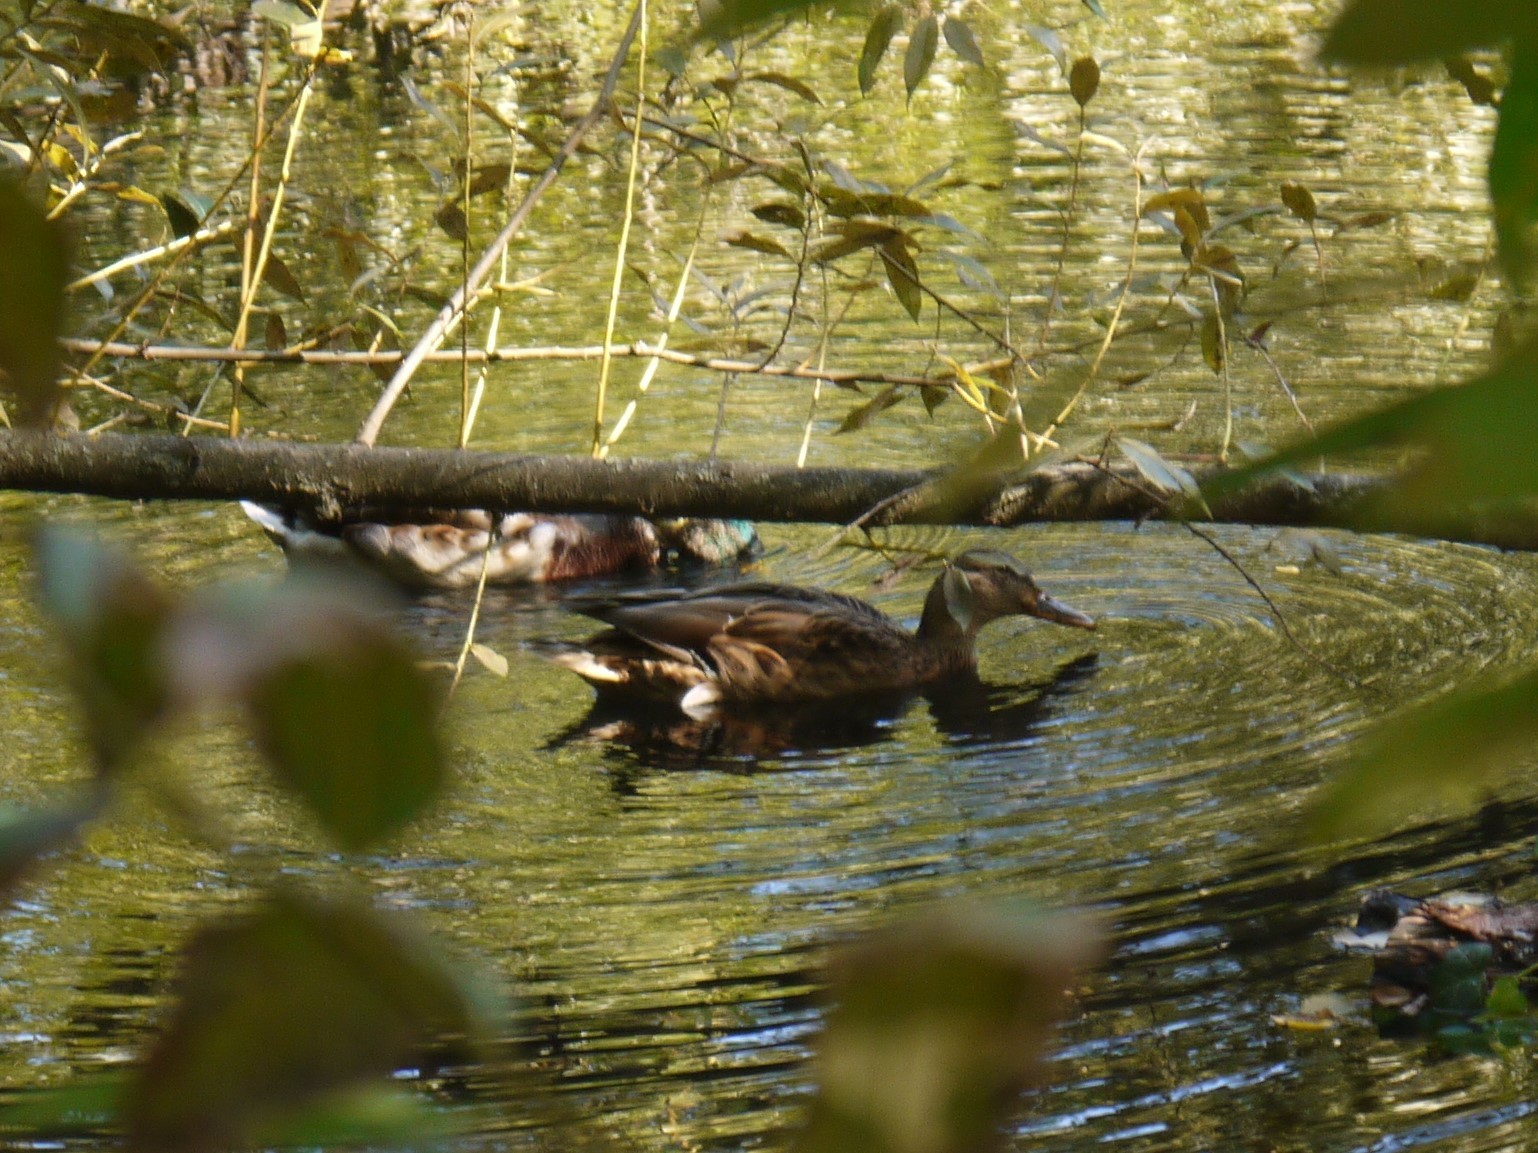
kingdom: Animalia
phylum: Chordata
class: Aves
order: Anseriformes
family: Anatidae
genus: Anas
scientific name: Anas platyrhynchos
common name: Mallard
